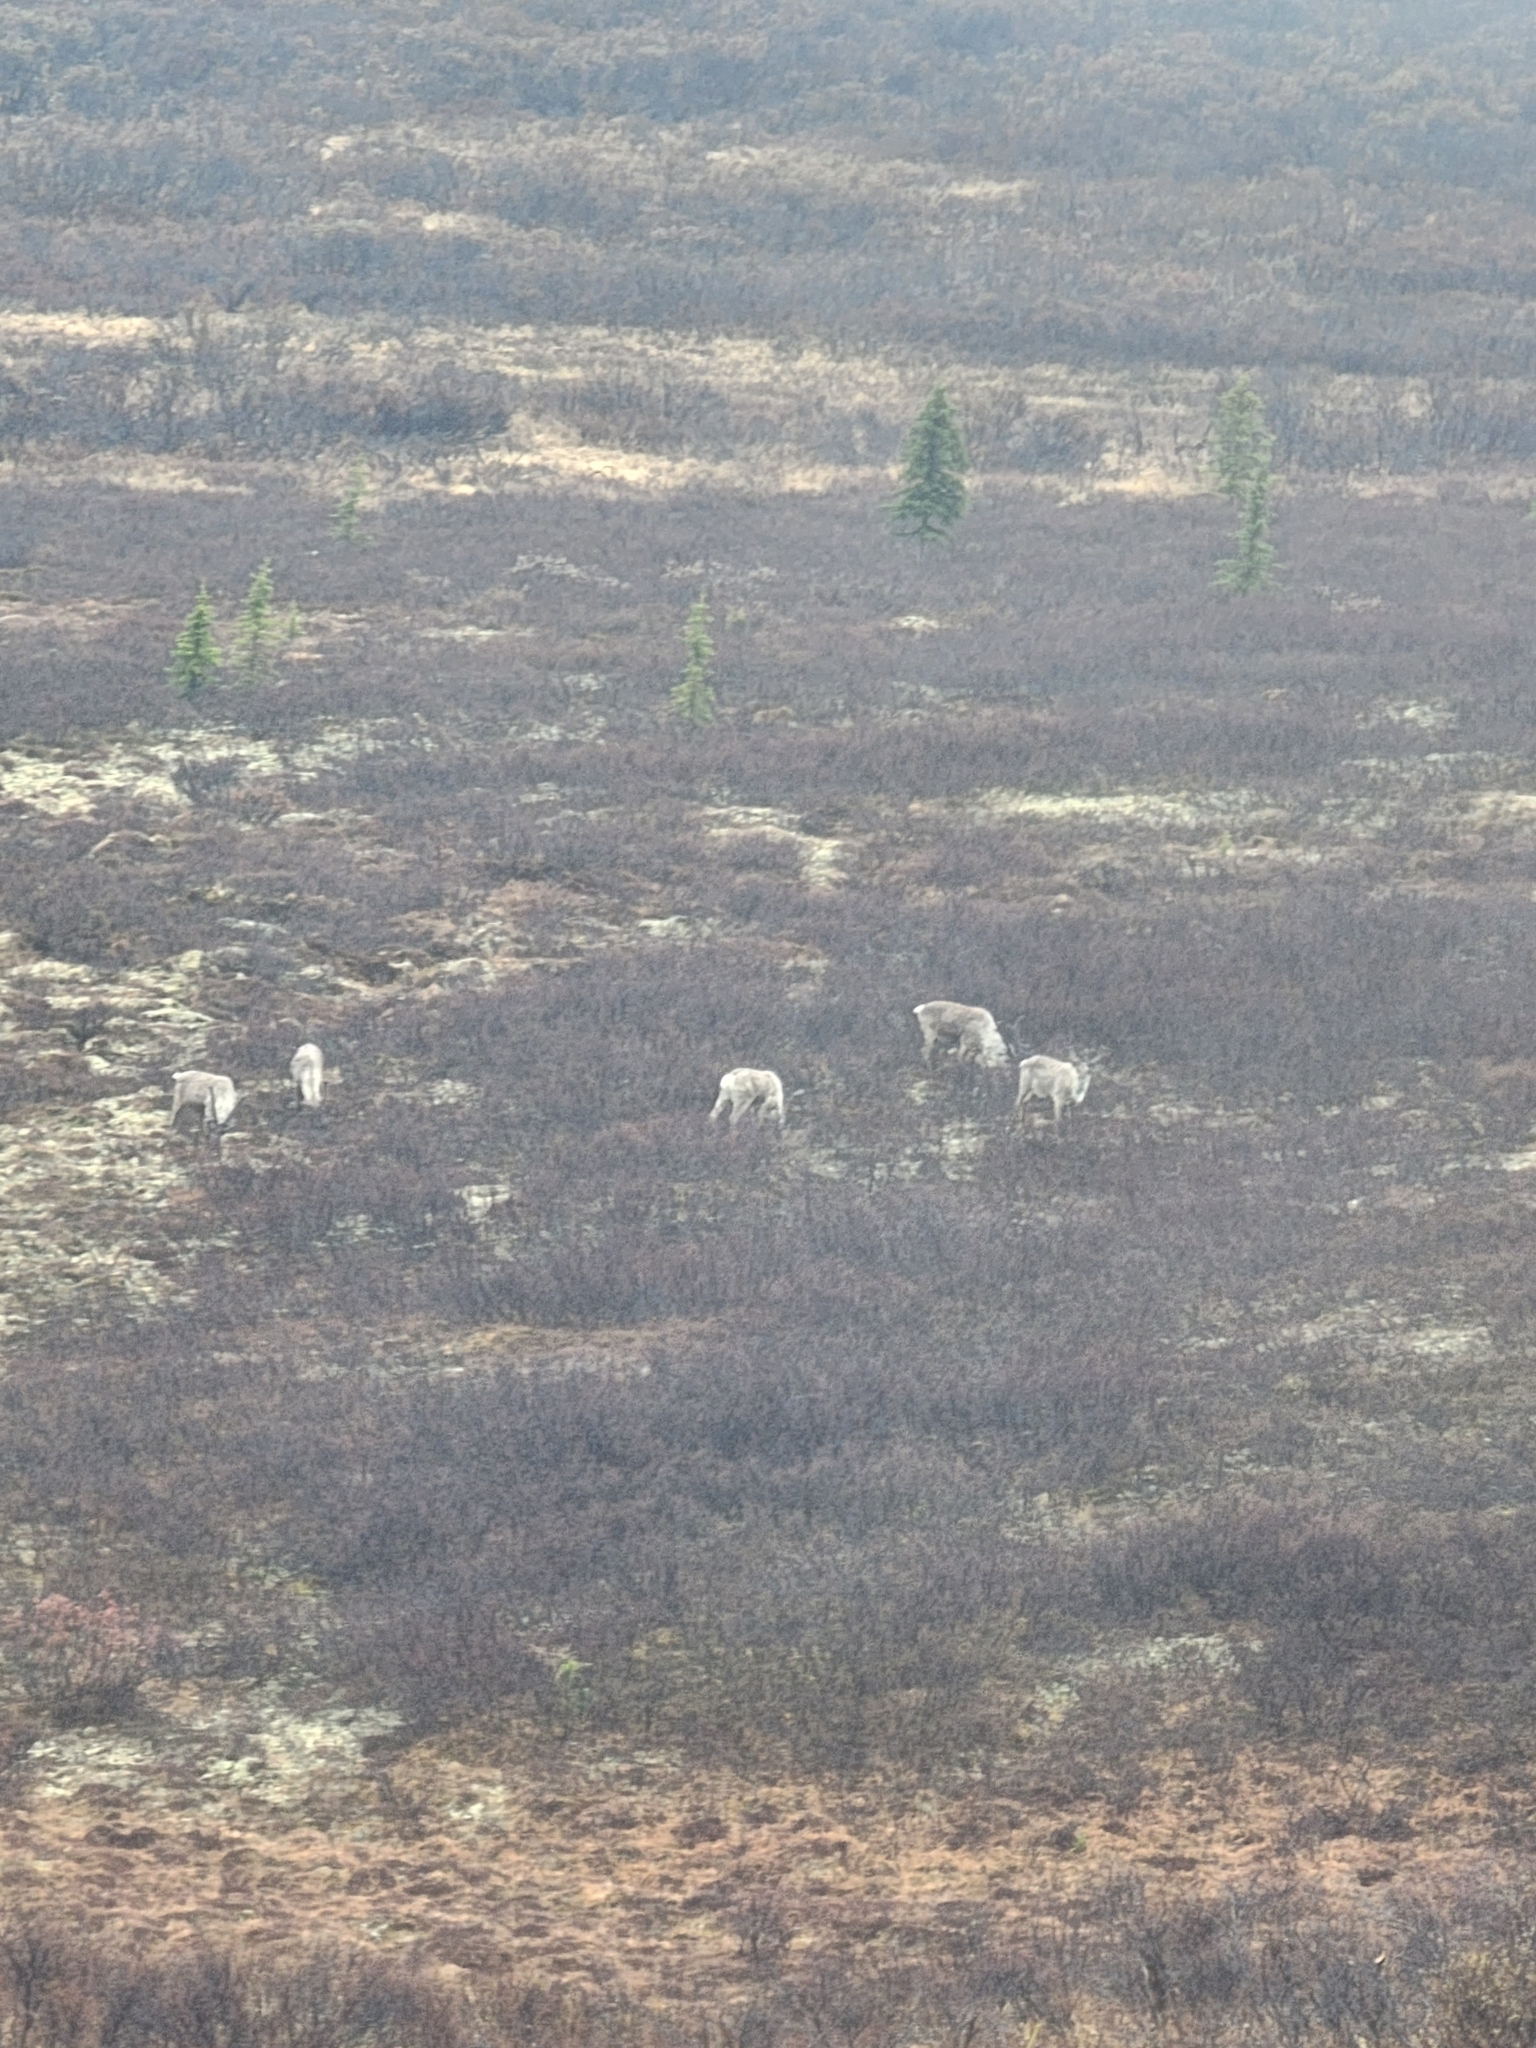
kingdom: Animalia
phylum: Chordata
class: Mammalia
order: Artiodactyla
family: Cervidae
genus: Rangifer
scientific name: Rangifer tarandus
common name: Reindeer
